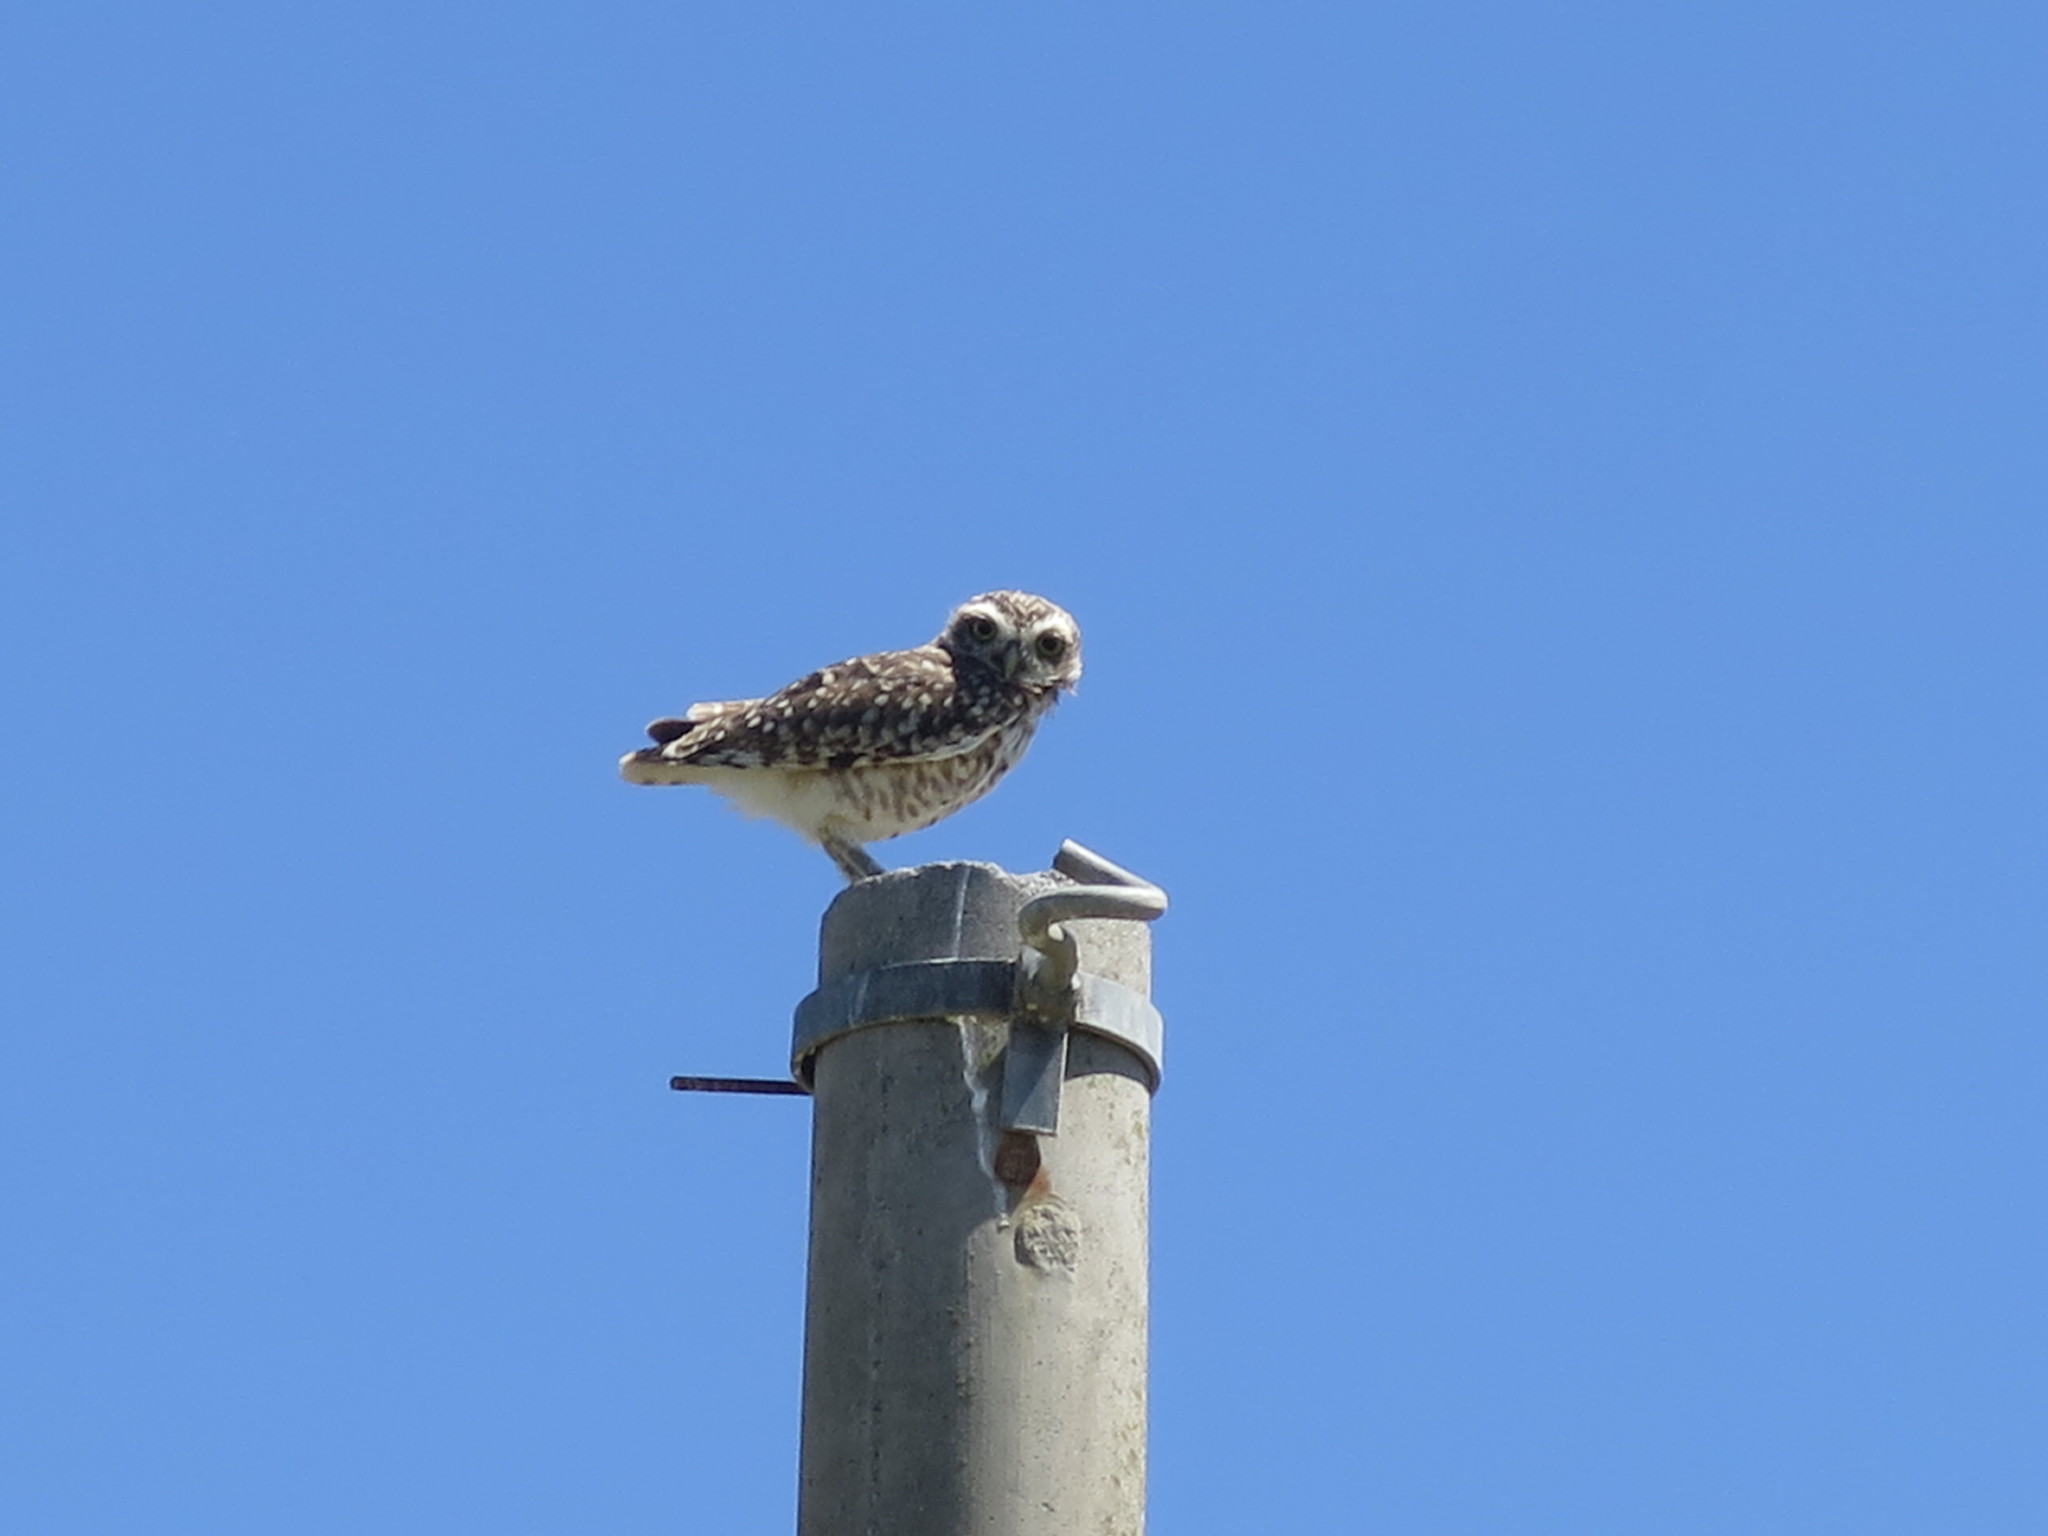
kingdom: Animalia
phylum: Chordata
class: Aves
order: Strigiformes
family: Strigidae
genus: Athene
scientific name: Athene cunicularia
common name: Burrowing owl
